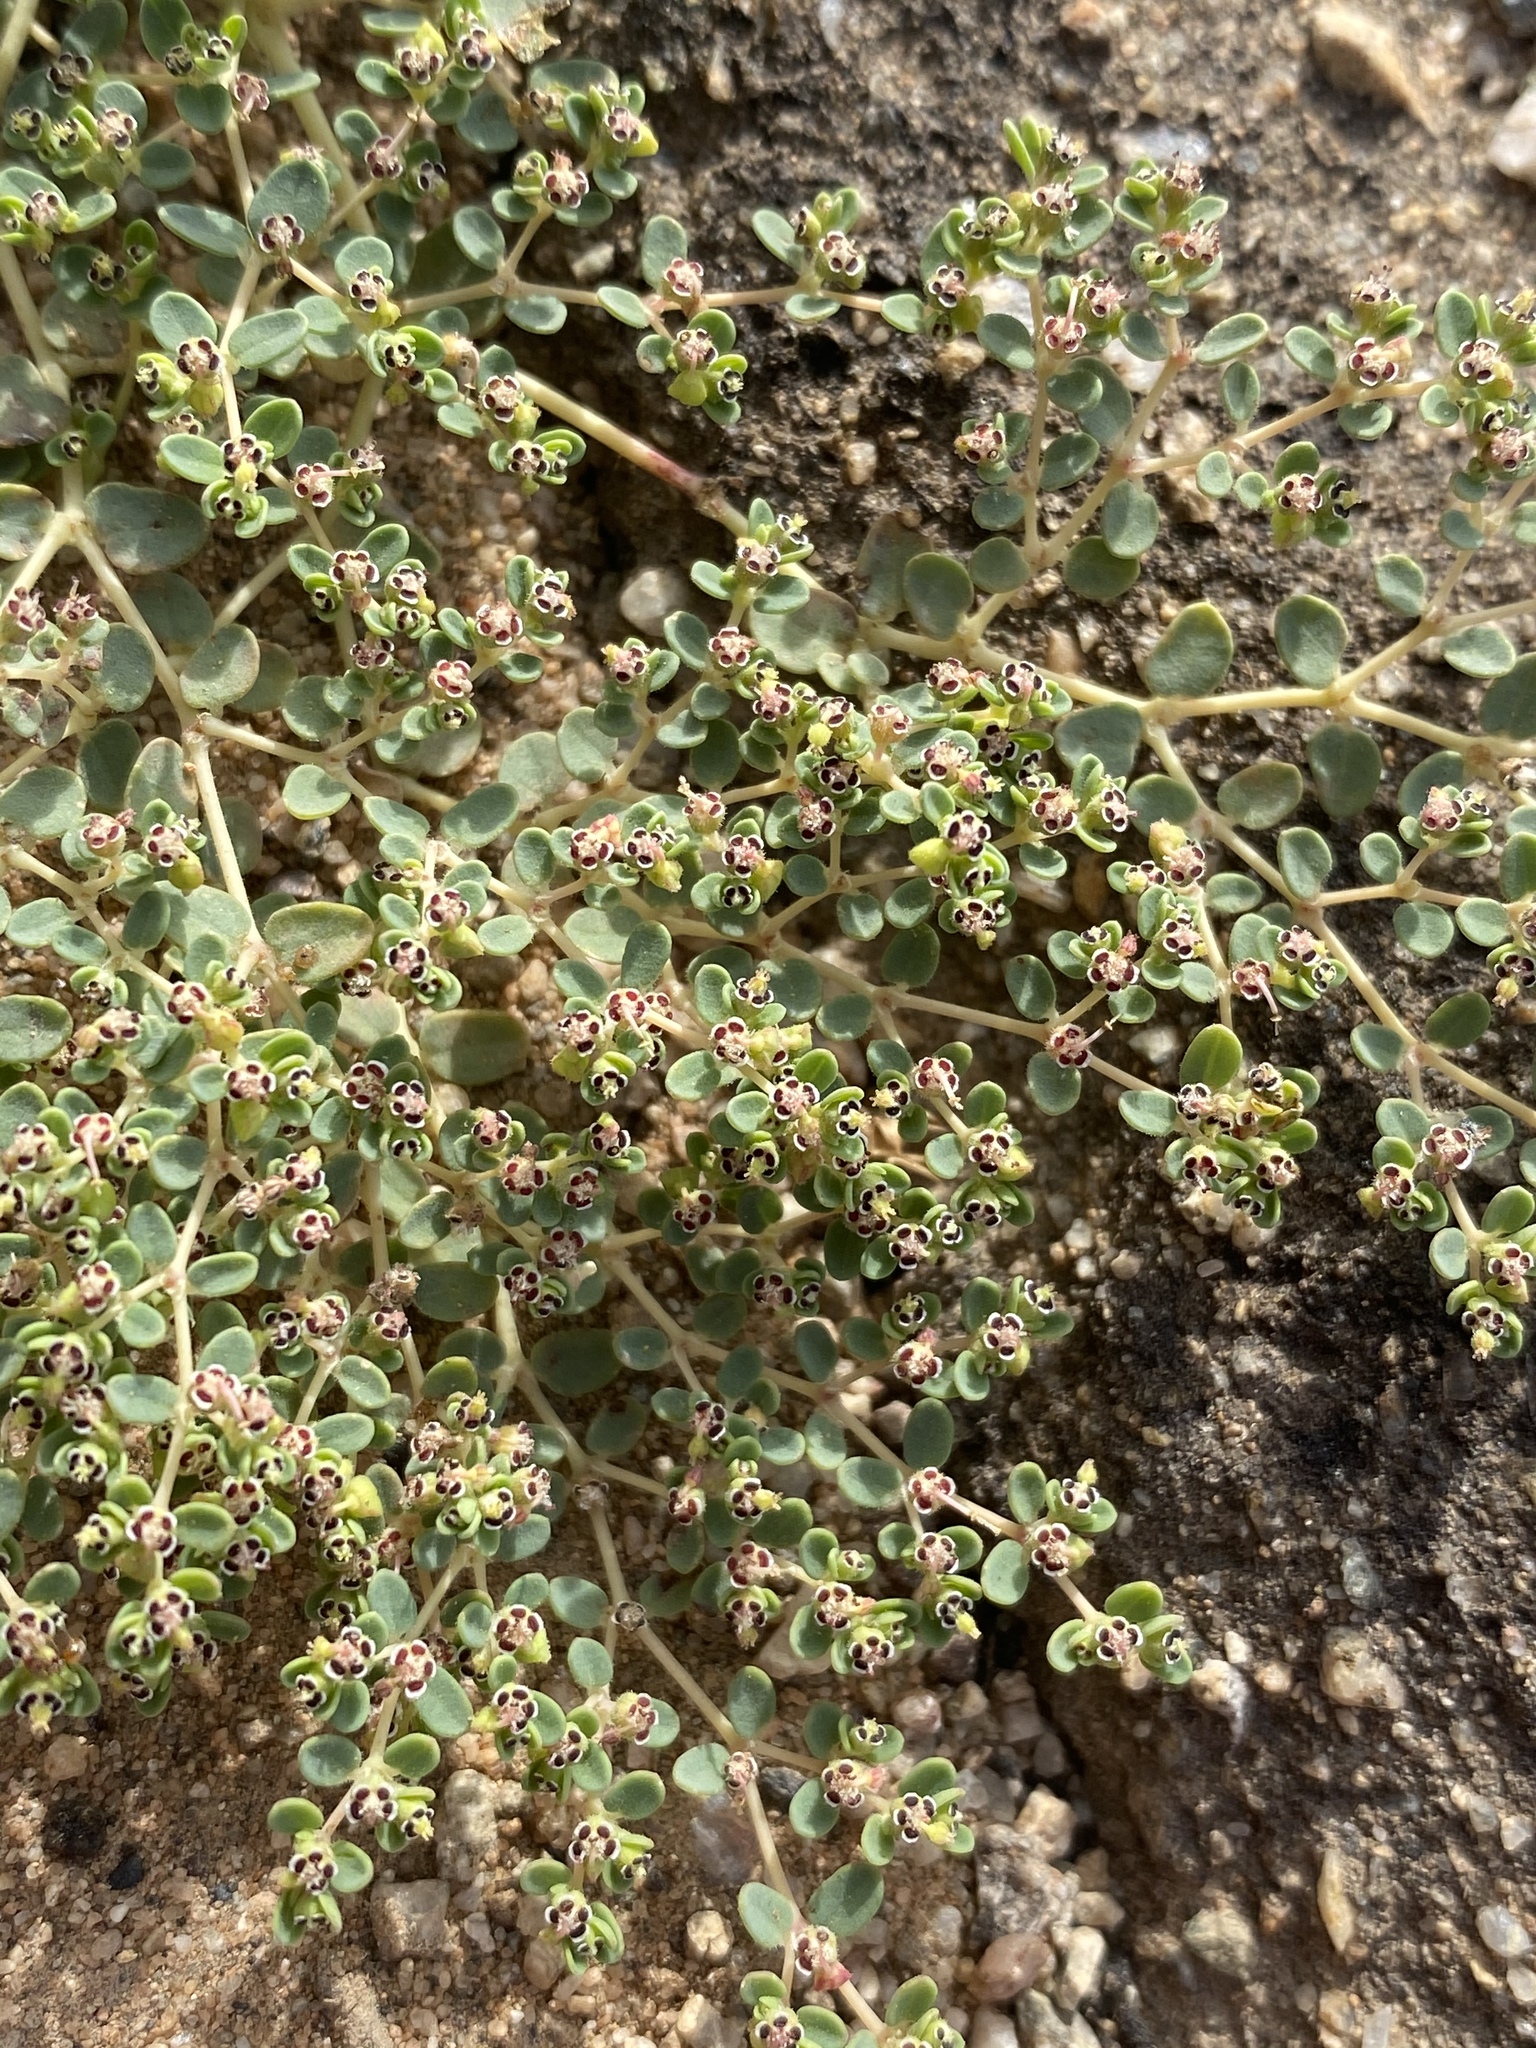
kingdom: Plantae
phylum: Tracheophyta
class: Magnoliopsida
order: Malpighiales
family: Euphorbiaceae
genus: Euphorbia
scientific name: Euphorbia polycarpa
